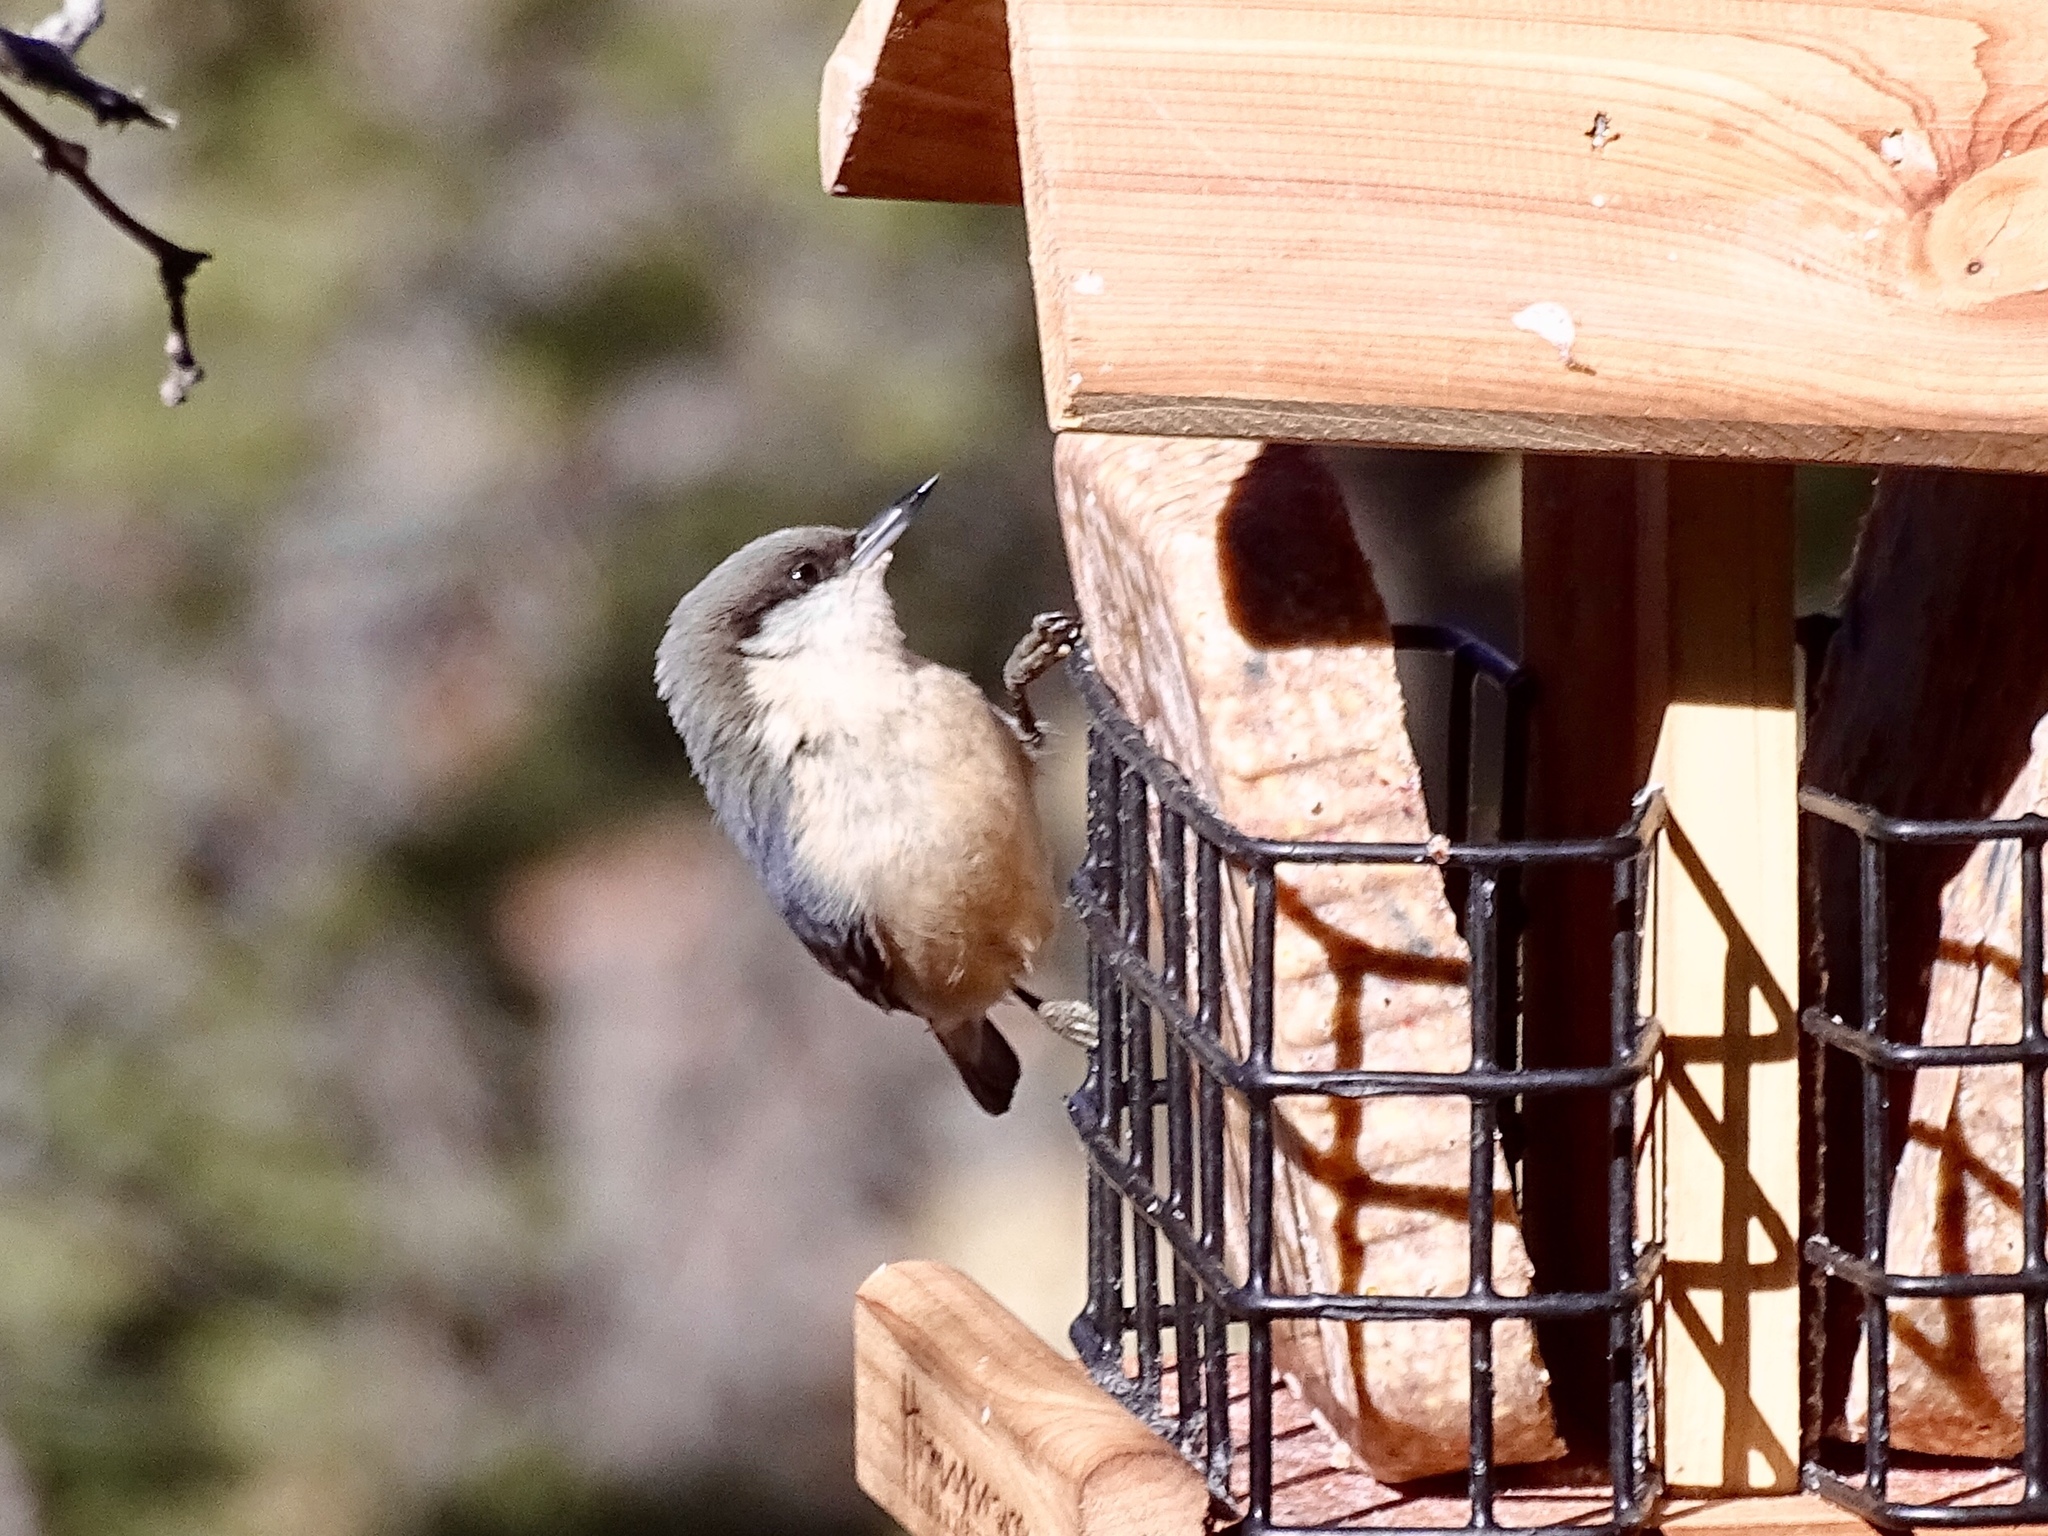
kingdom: Animalia
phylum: Chordata
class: Aves
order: Passeriformes
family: Sittidae
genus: Sitta
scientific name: Sitta pygmaea
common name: Pygmy nuthatch
